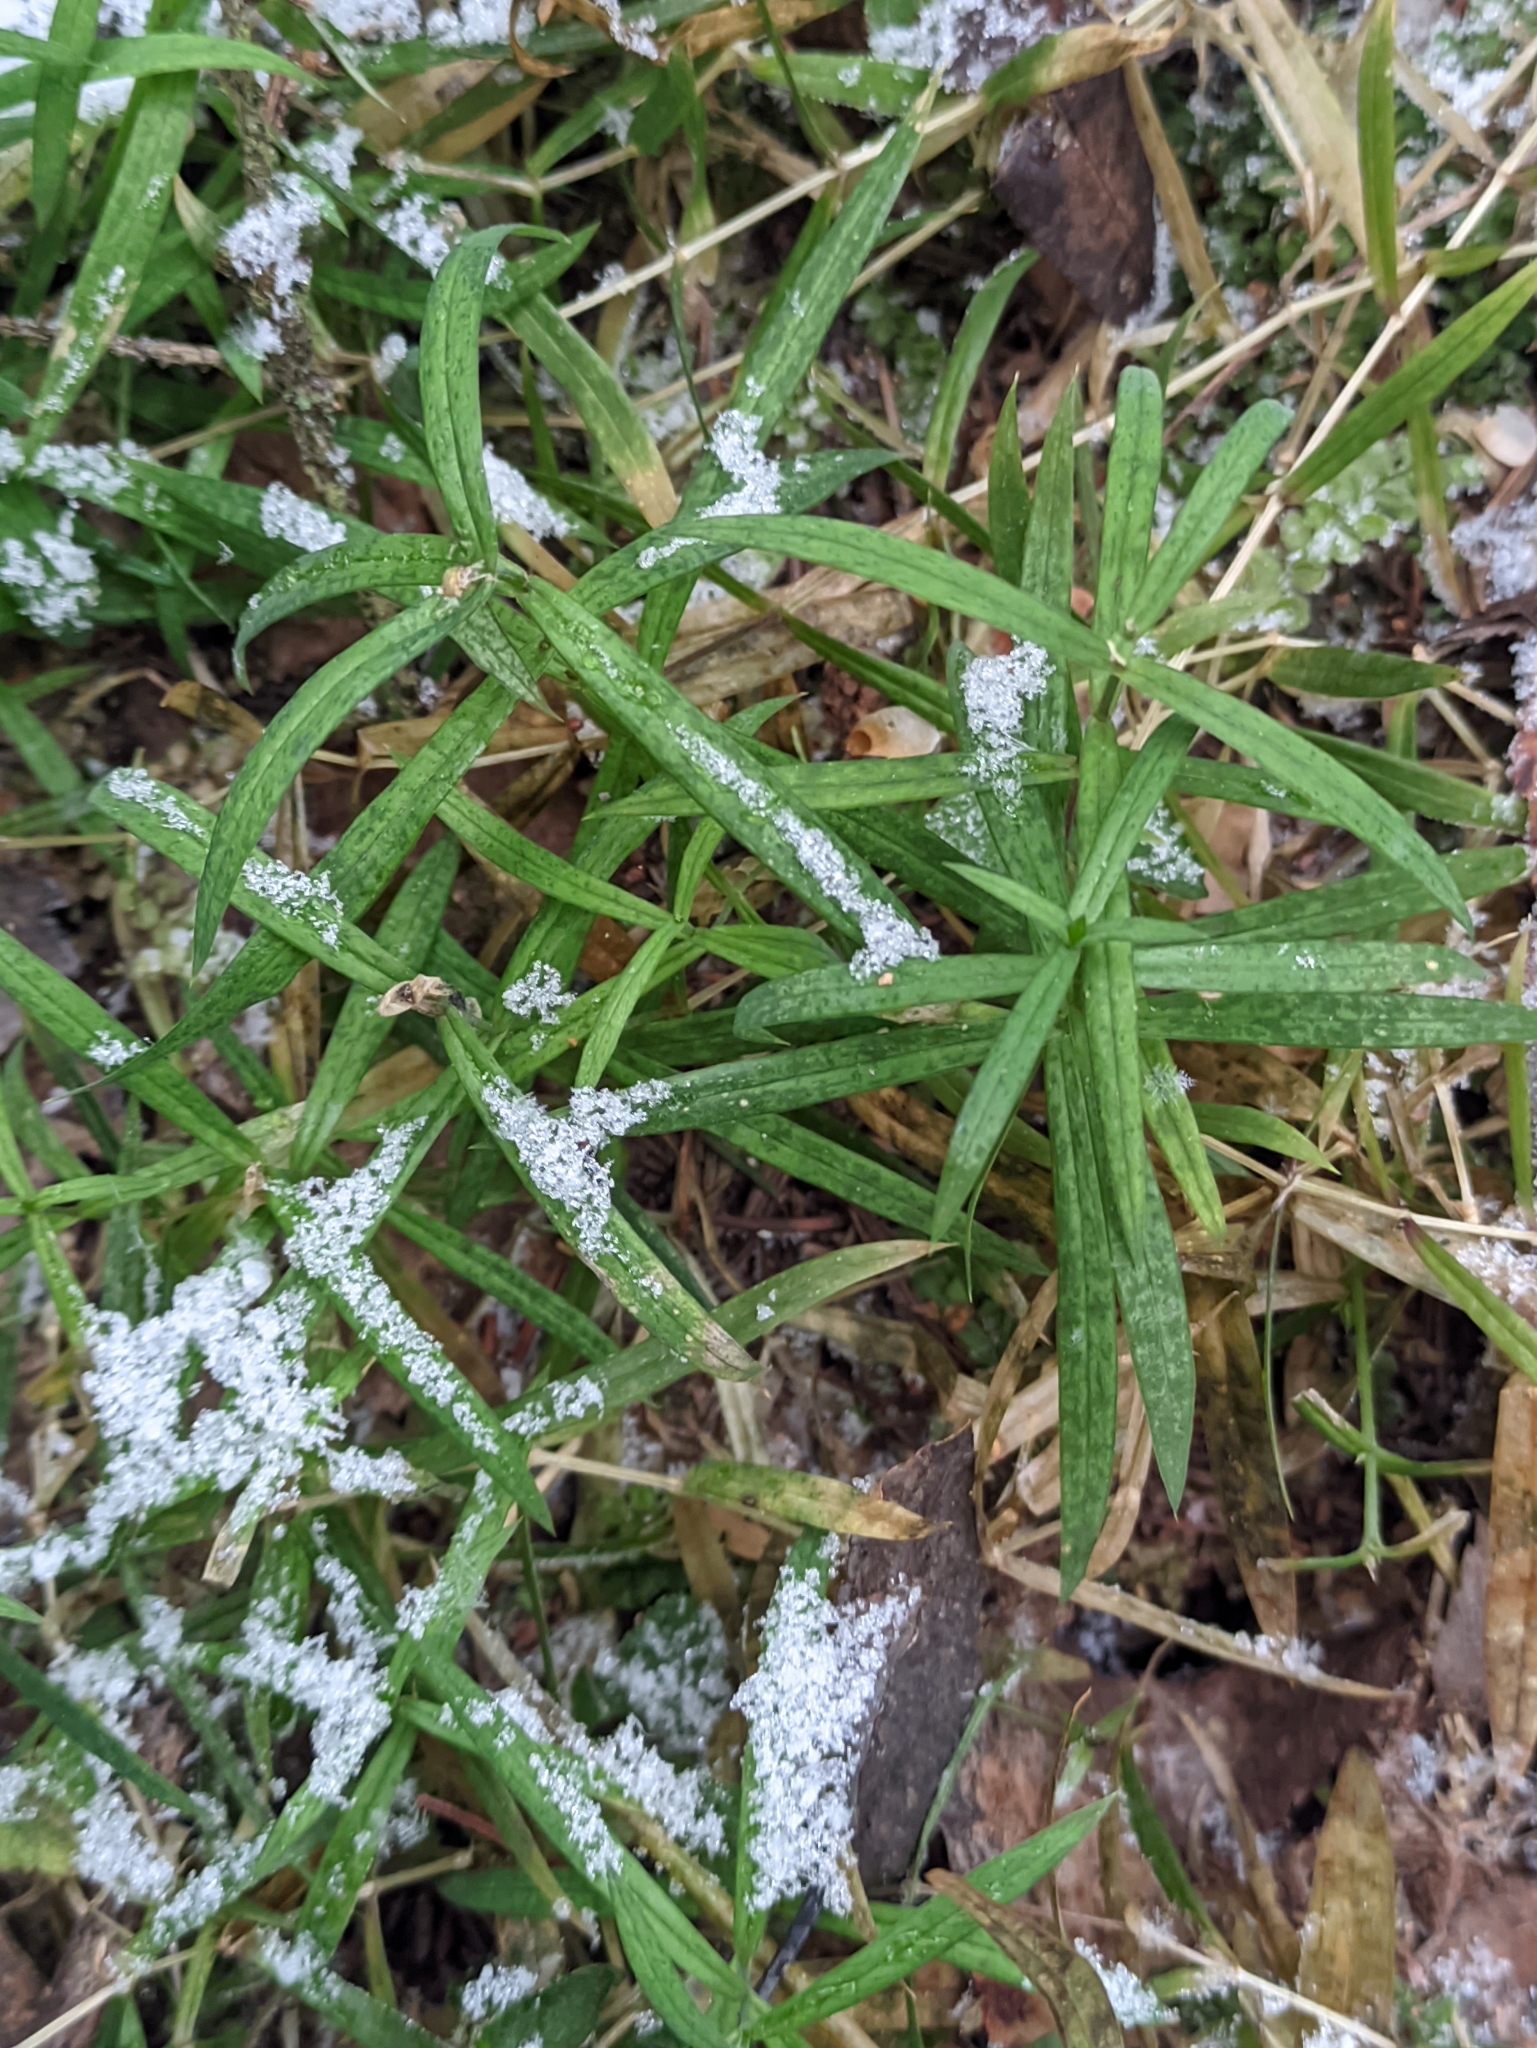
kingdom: Plantae
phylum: Tracheophyta
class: Magnoliopsida
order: Caryophyllales
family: Caryophyllaceae
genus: Rabelera
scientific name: Rabelera holostea
